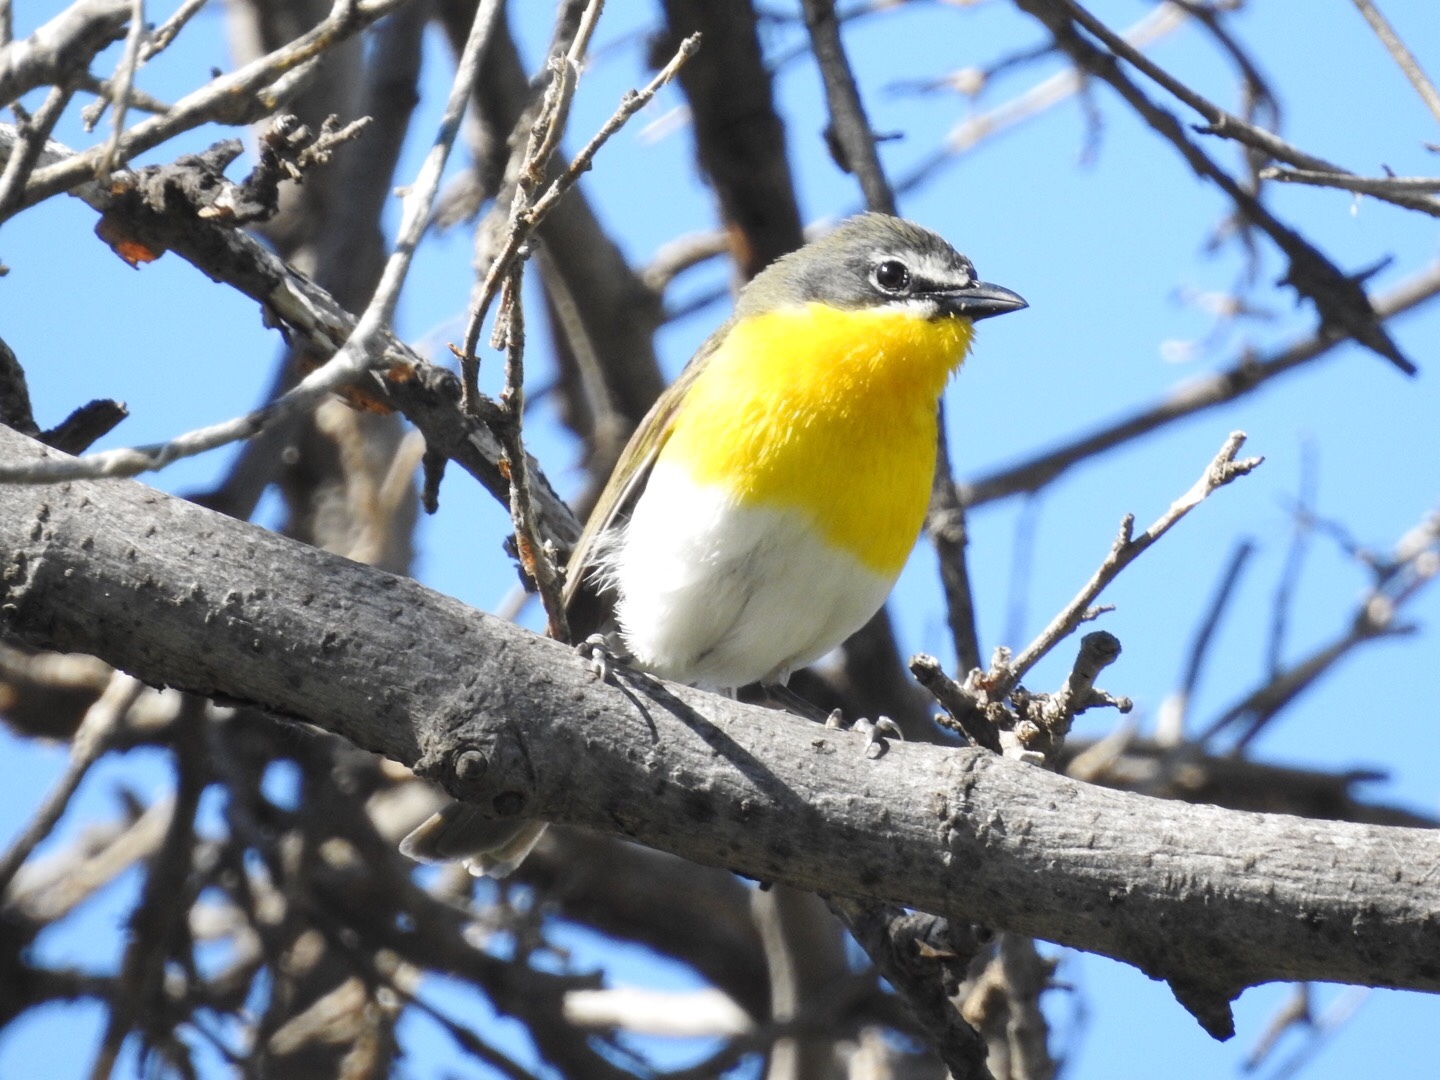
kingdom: Animalia
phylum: Chordata
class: Aves
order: Passeriformes
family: Parulidae
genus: Icteria
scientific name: Icteria virens
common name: Yellow-breasted chat
